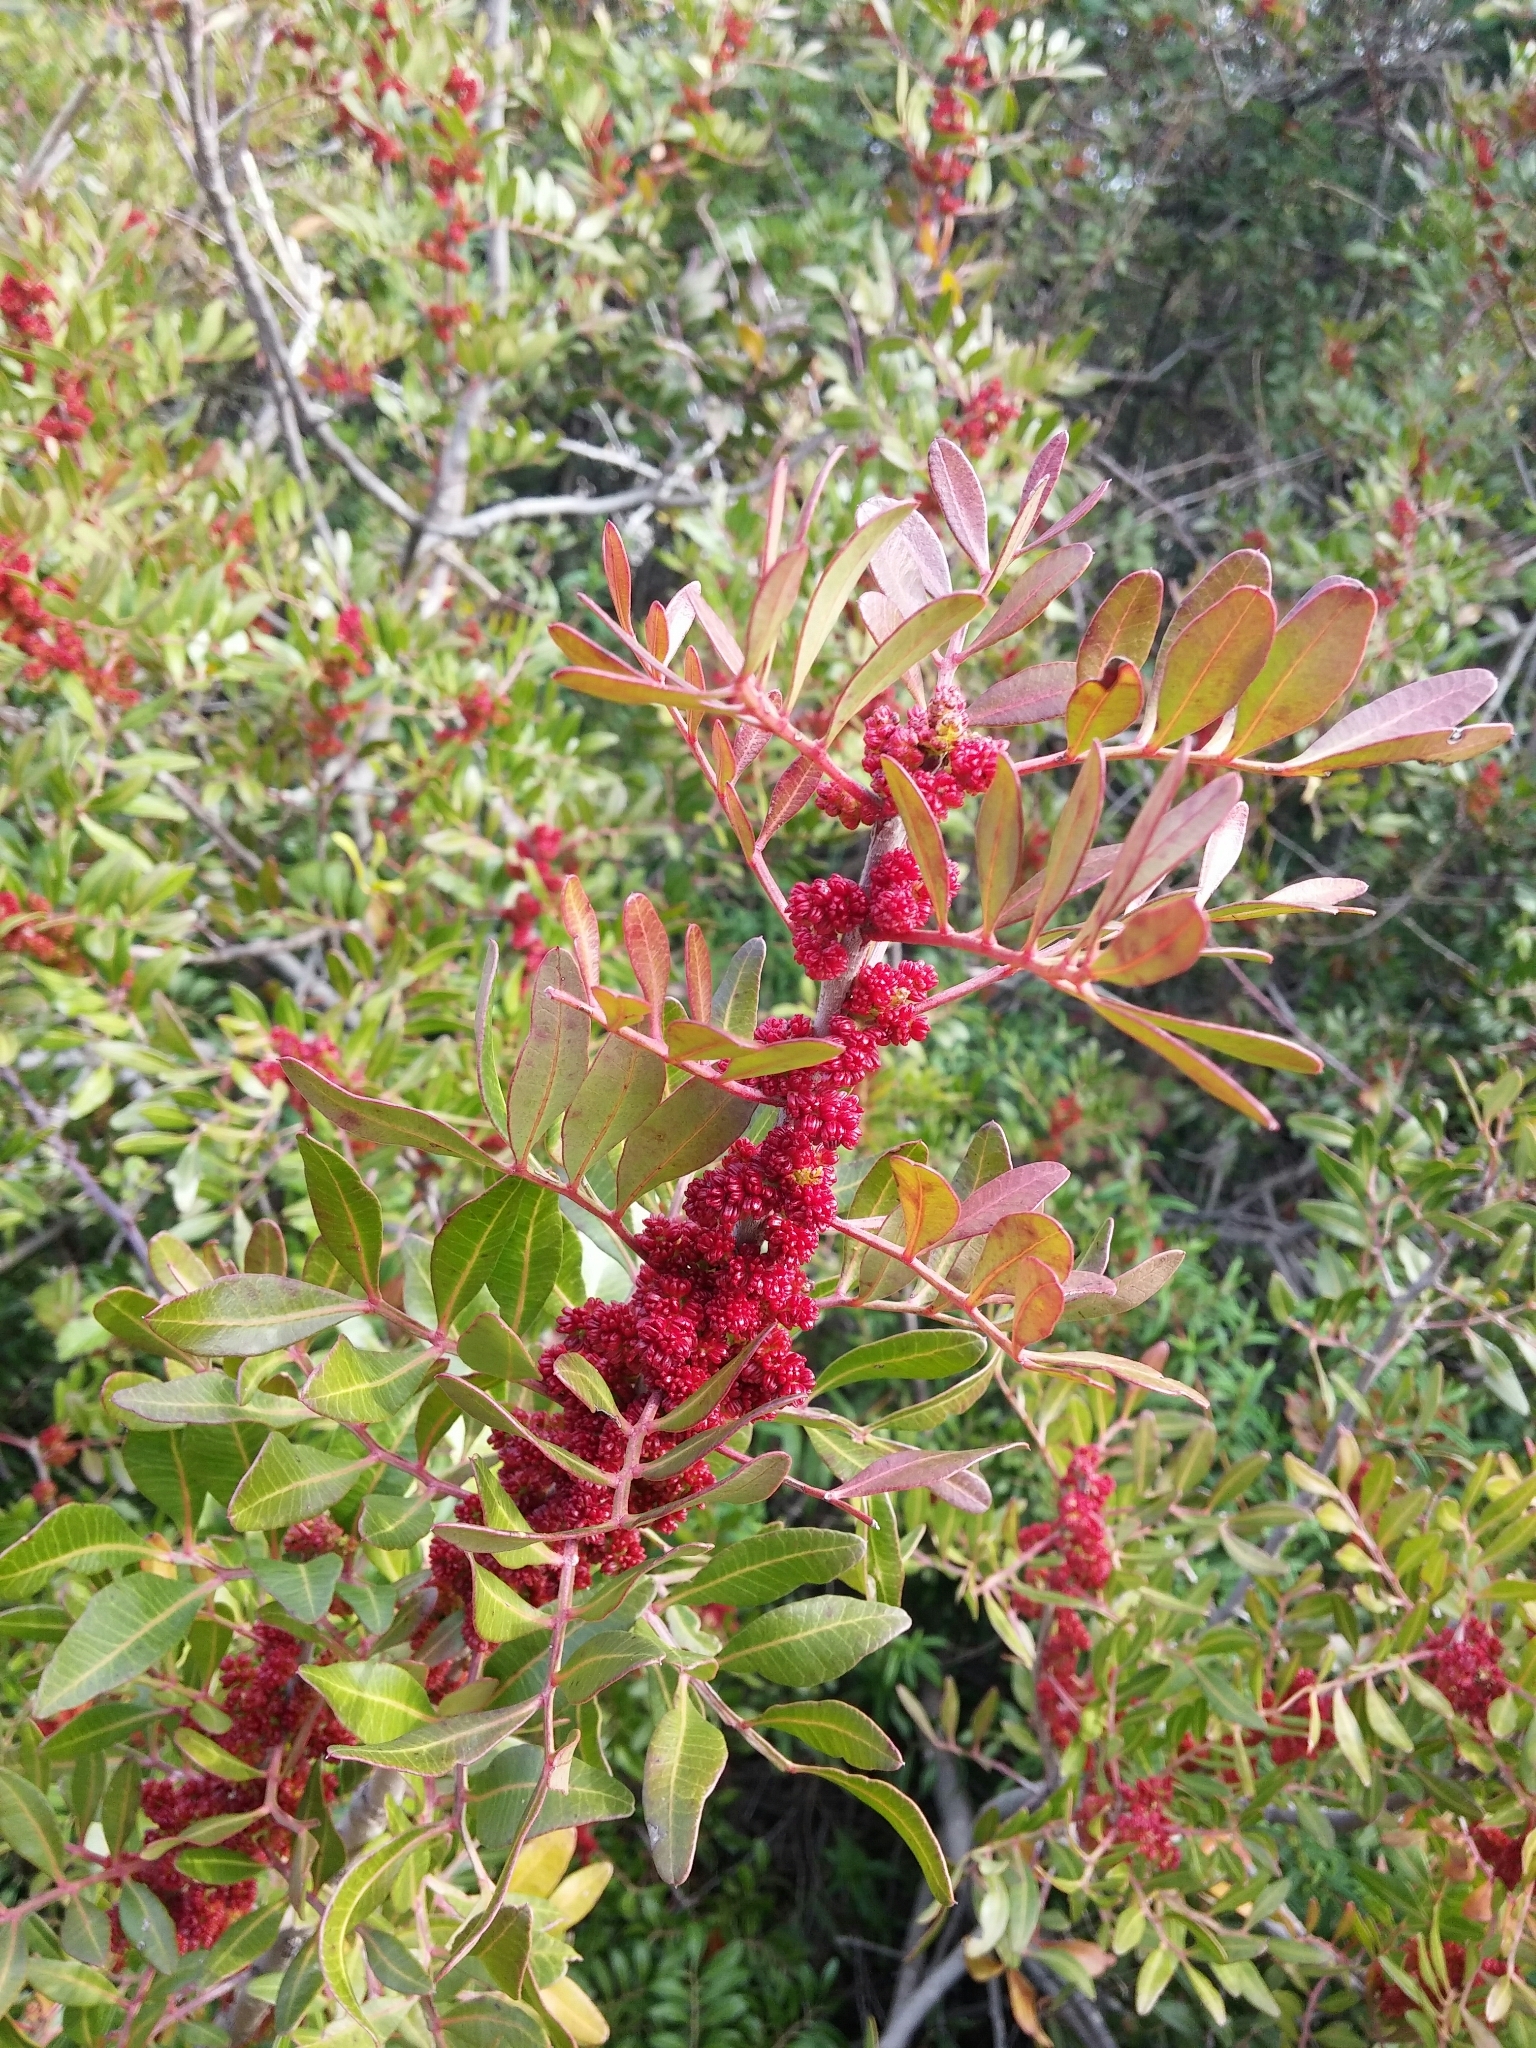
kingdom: Plantae
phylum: Tracheophyta
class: Magnoliopsida
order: Sapindales
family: Anacardiaceae
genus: Pistacia
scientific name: Pistacia lentiscus
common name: Lentisk
